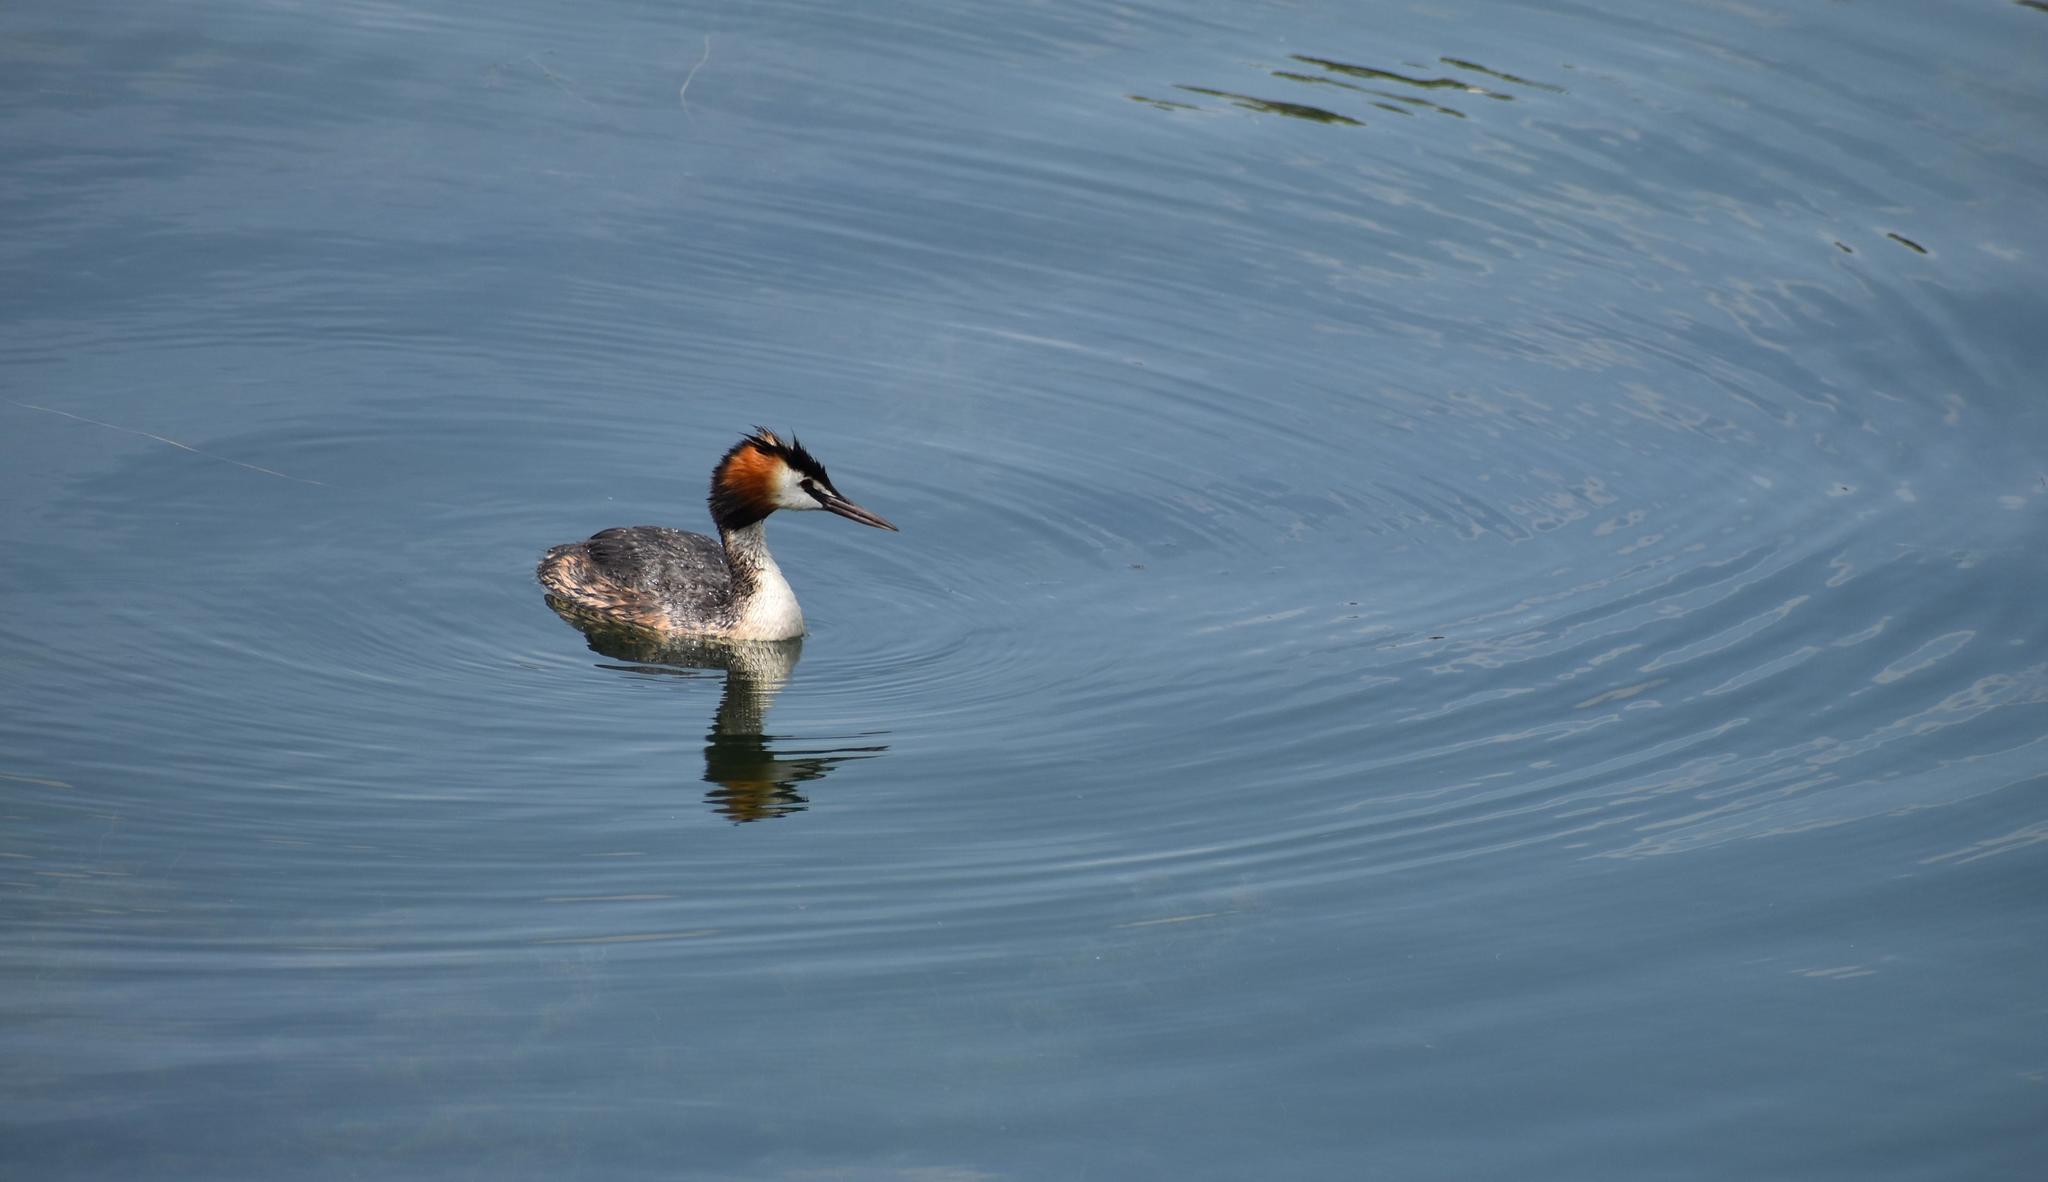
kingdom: Animalia
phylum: Chordata
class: Aves
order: Podicipediformes
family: Podicipedidae
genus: Podiceps
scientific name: Podiceps cristatus
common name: Great crested grebe
